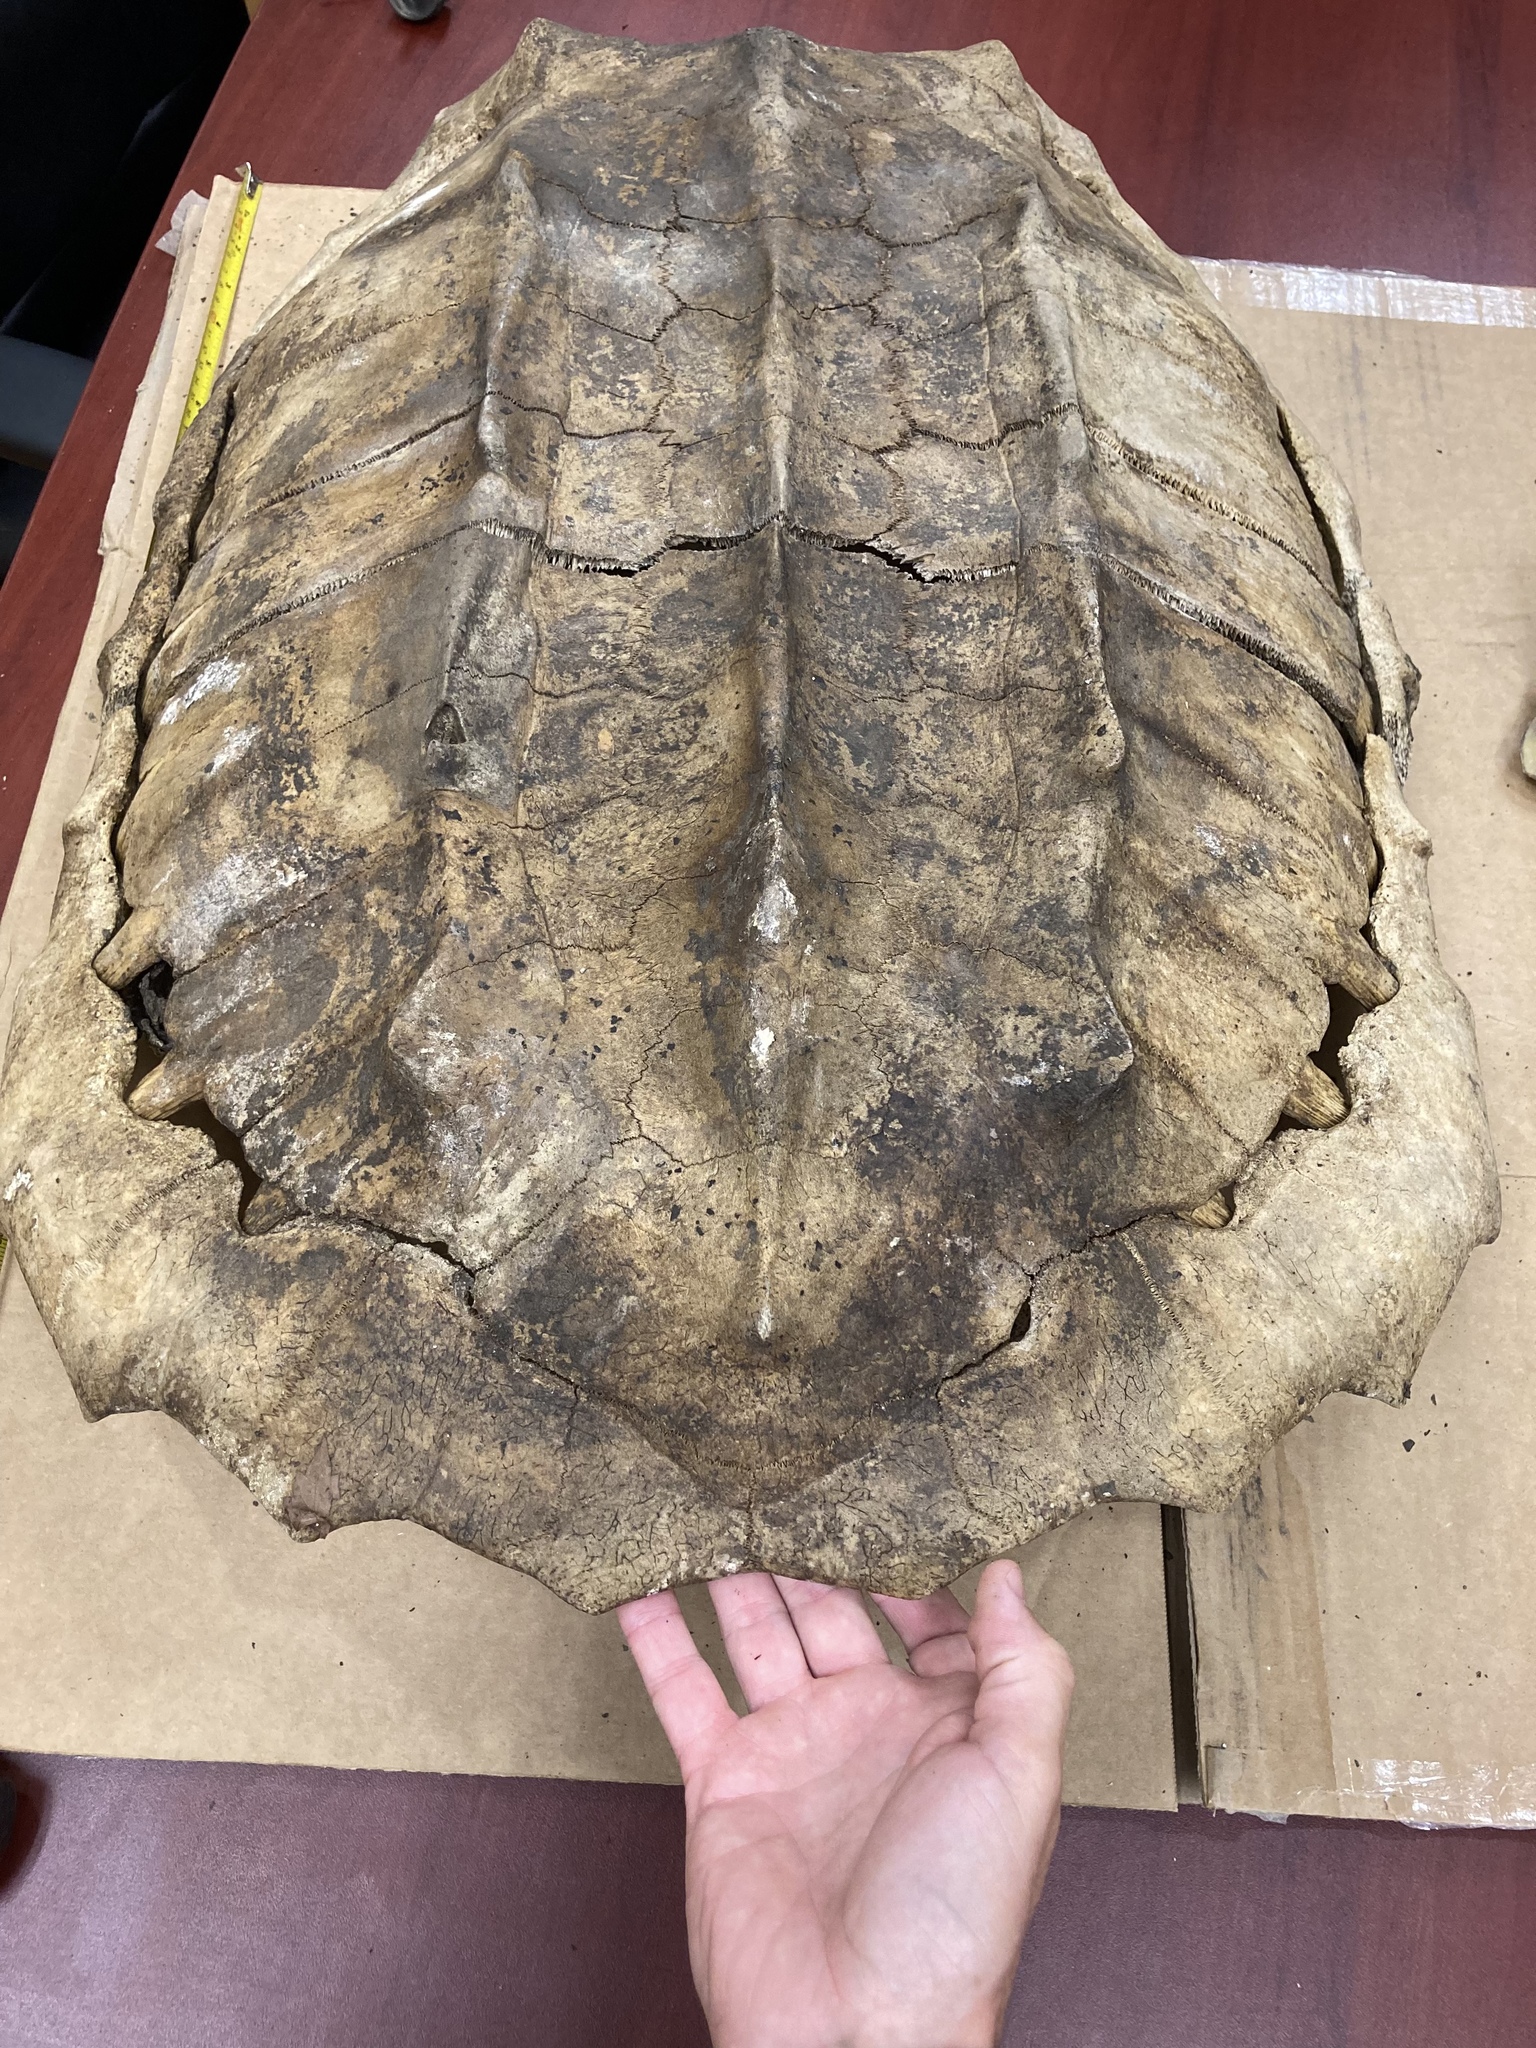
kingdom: Animalia
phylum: Chordata
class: Testudines
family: Chelydridae
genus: Macrochelys
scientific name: Macrochelys temminckii
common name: Alligator snapping turtle
